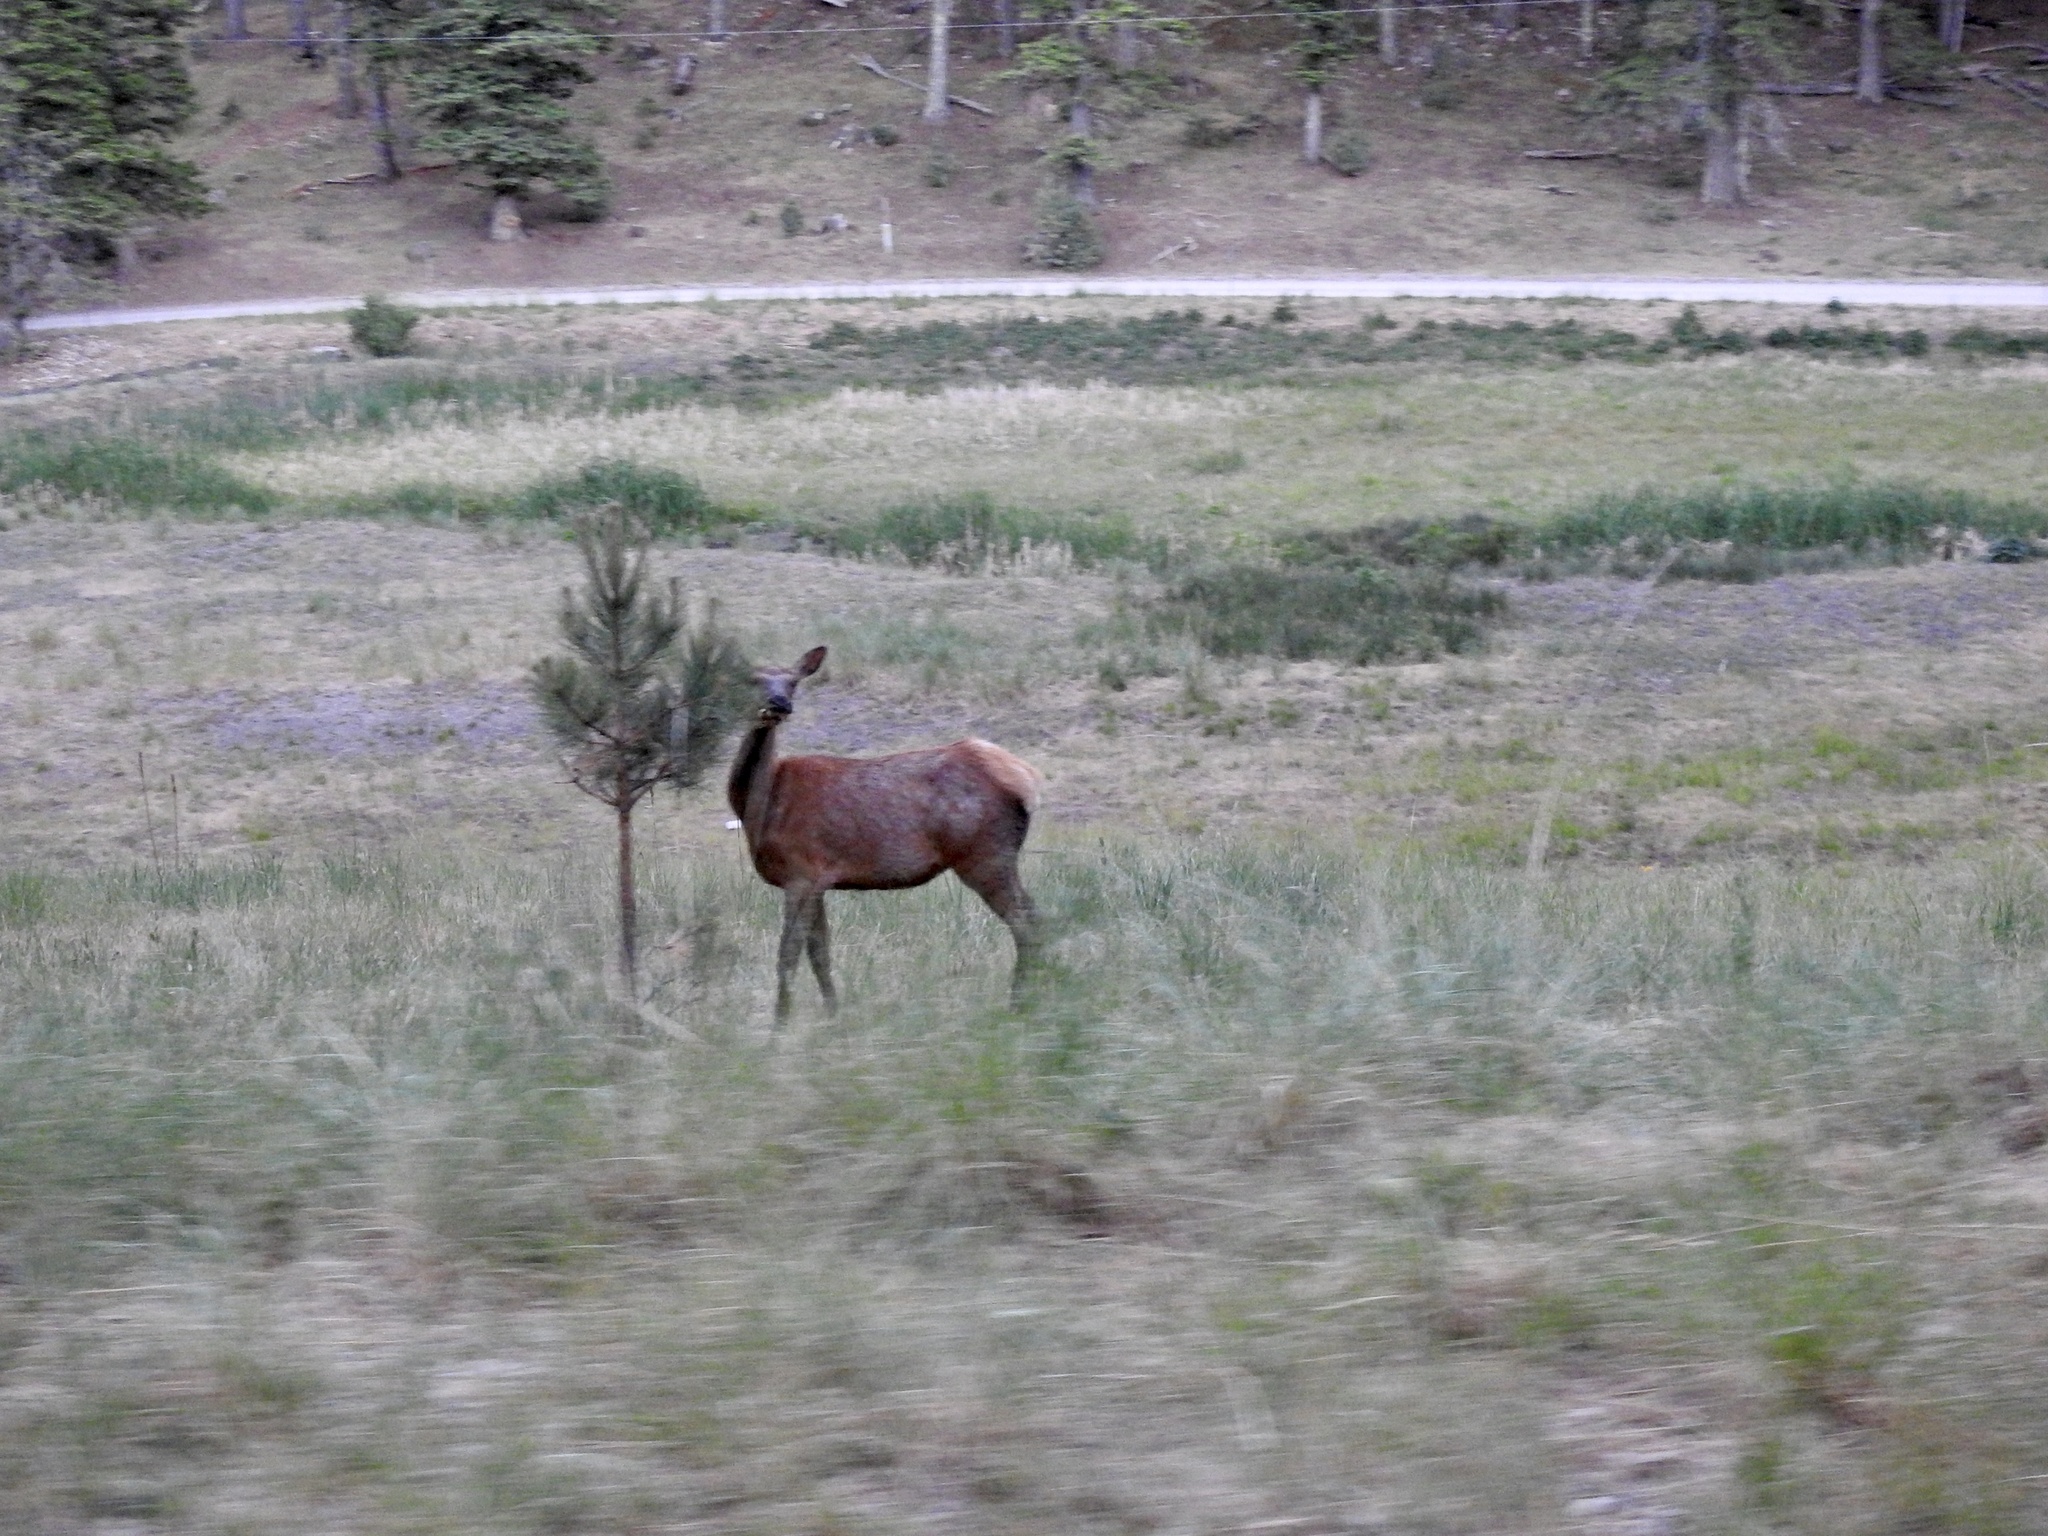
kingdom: Animalia
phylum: Chordata
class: Mammalia
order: Artiodactyla
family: Cervidae
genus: Cervus
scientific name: Cervus elaphus
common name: Red deer
